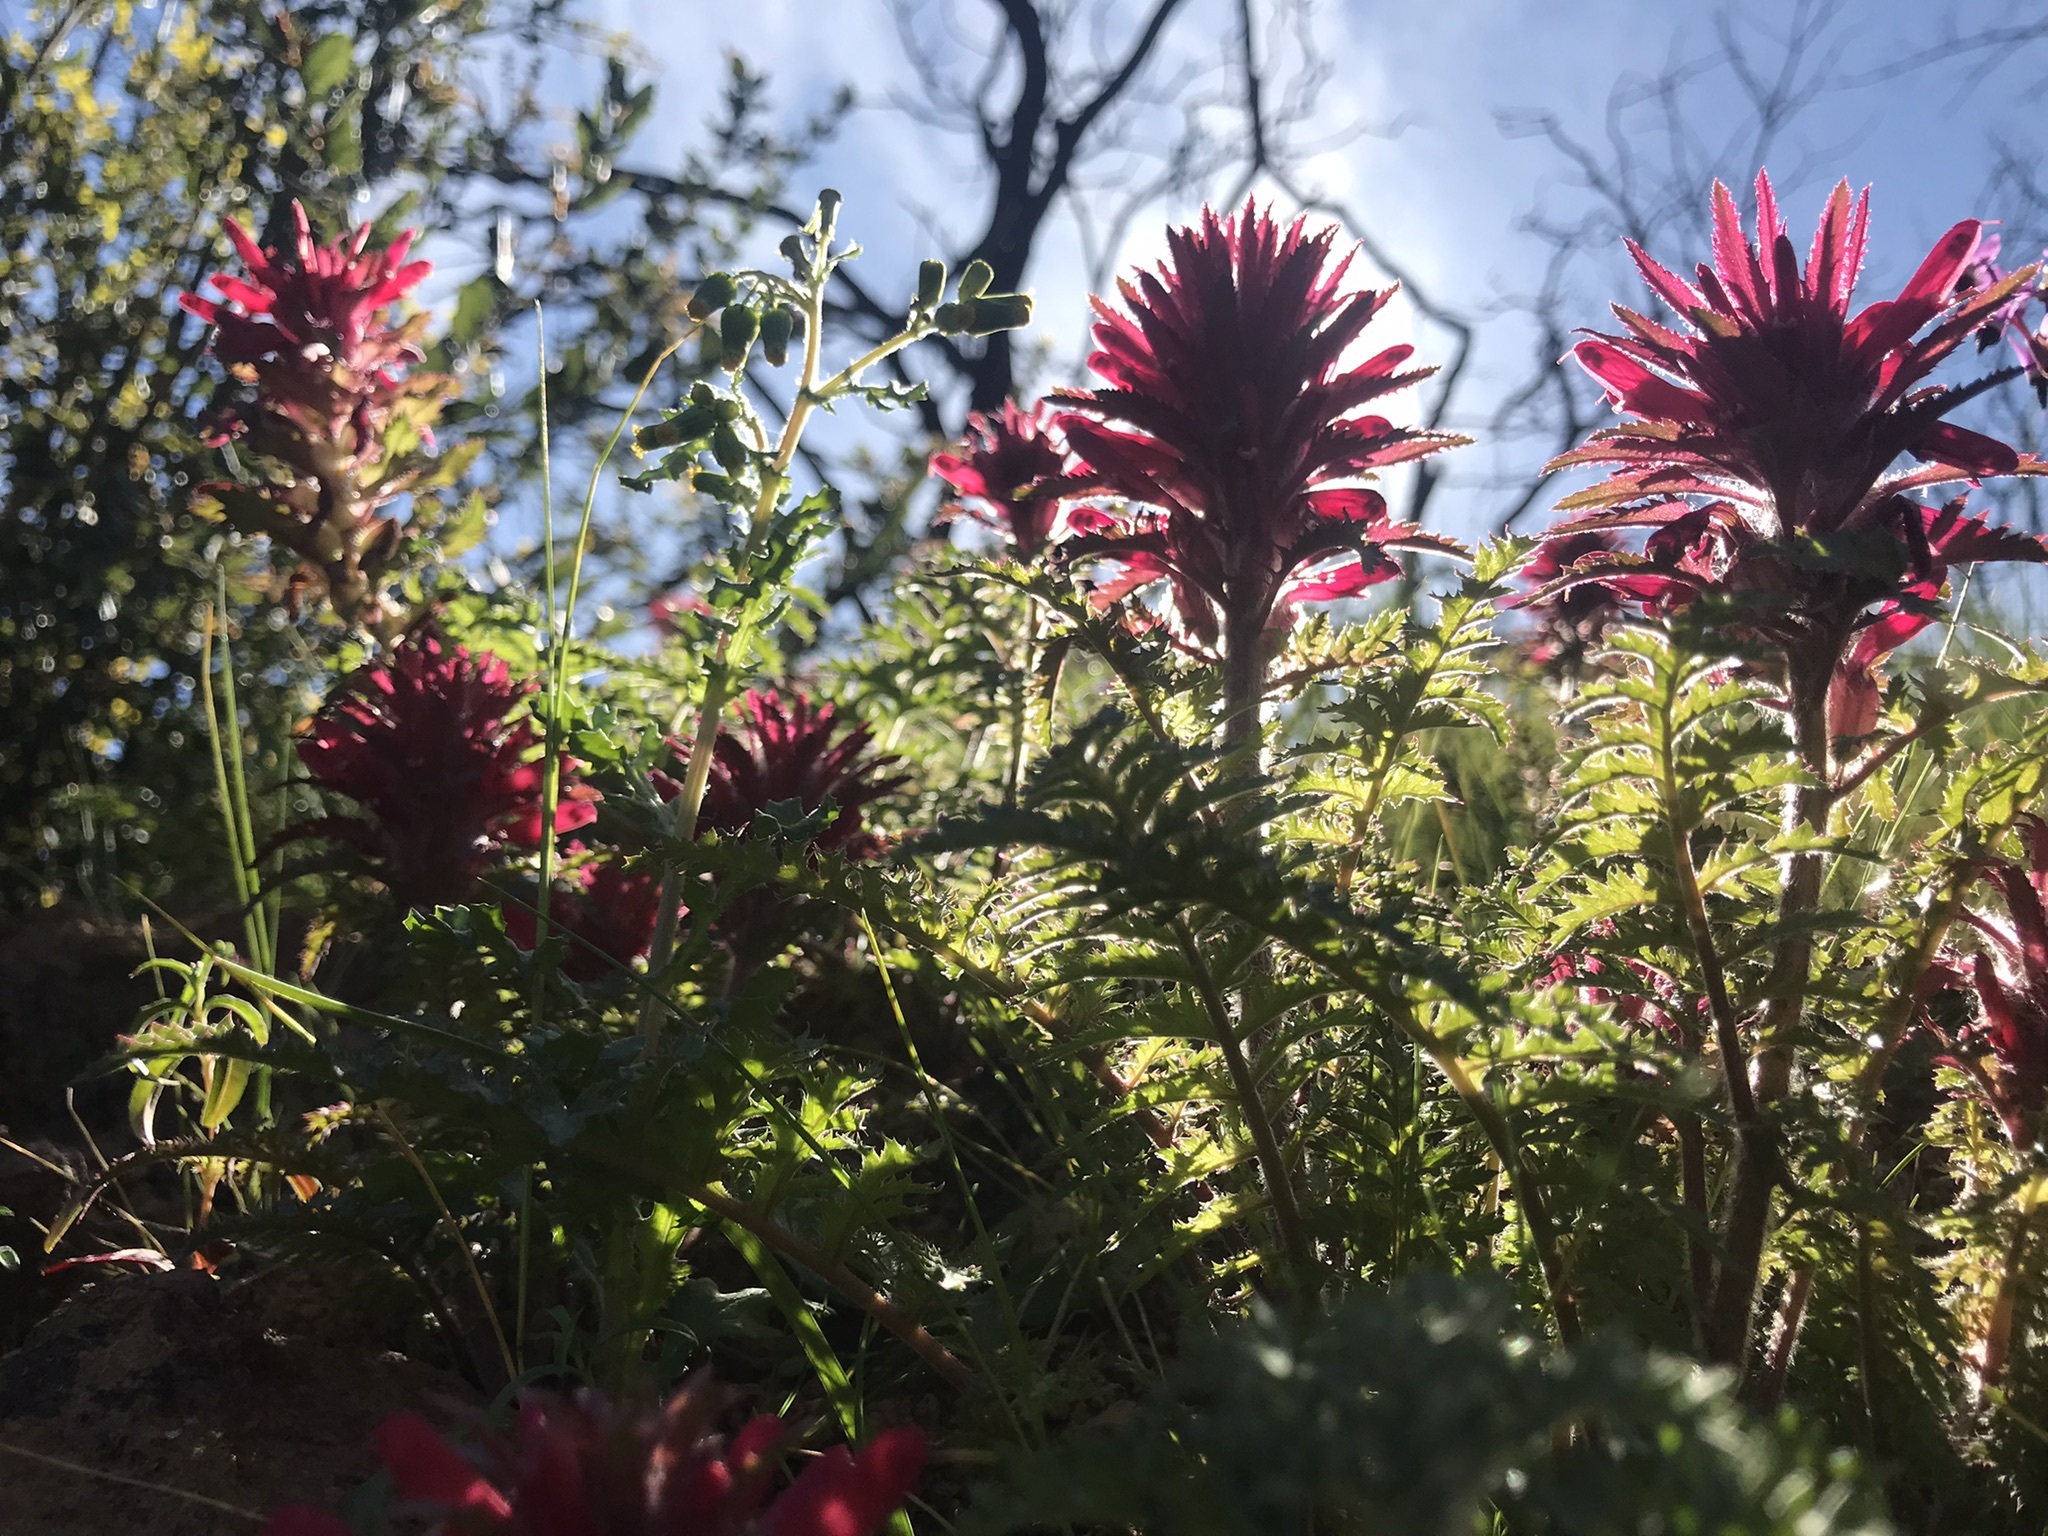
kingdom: Plantae
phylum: Tracheophyta
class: Magnoliopsida
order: Lamiales
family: Orobanchaceae
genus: Pedicularis
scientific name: Pedicularis densiflora
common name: Indian warrior
